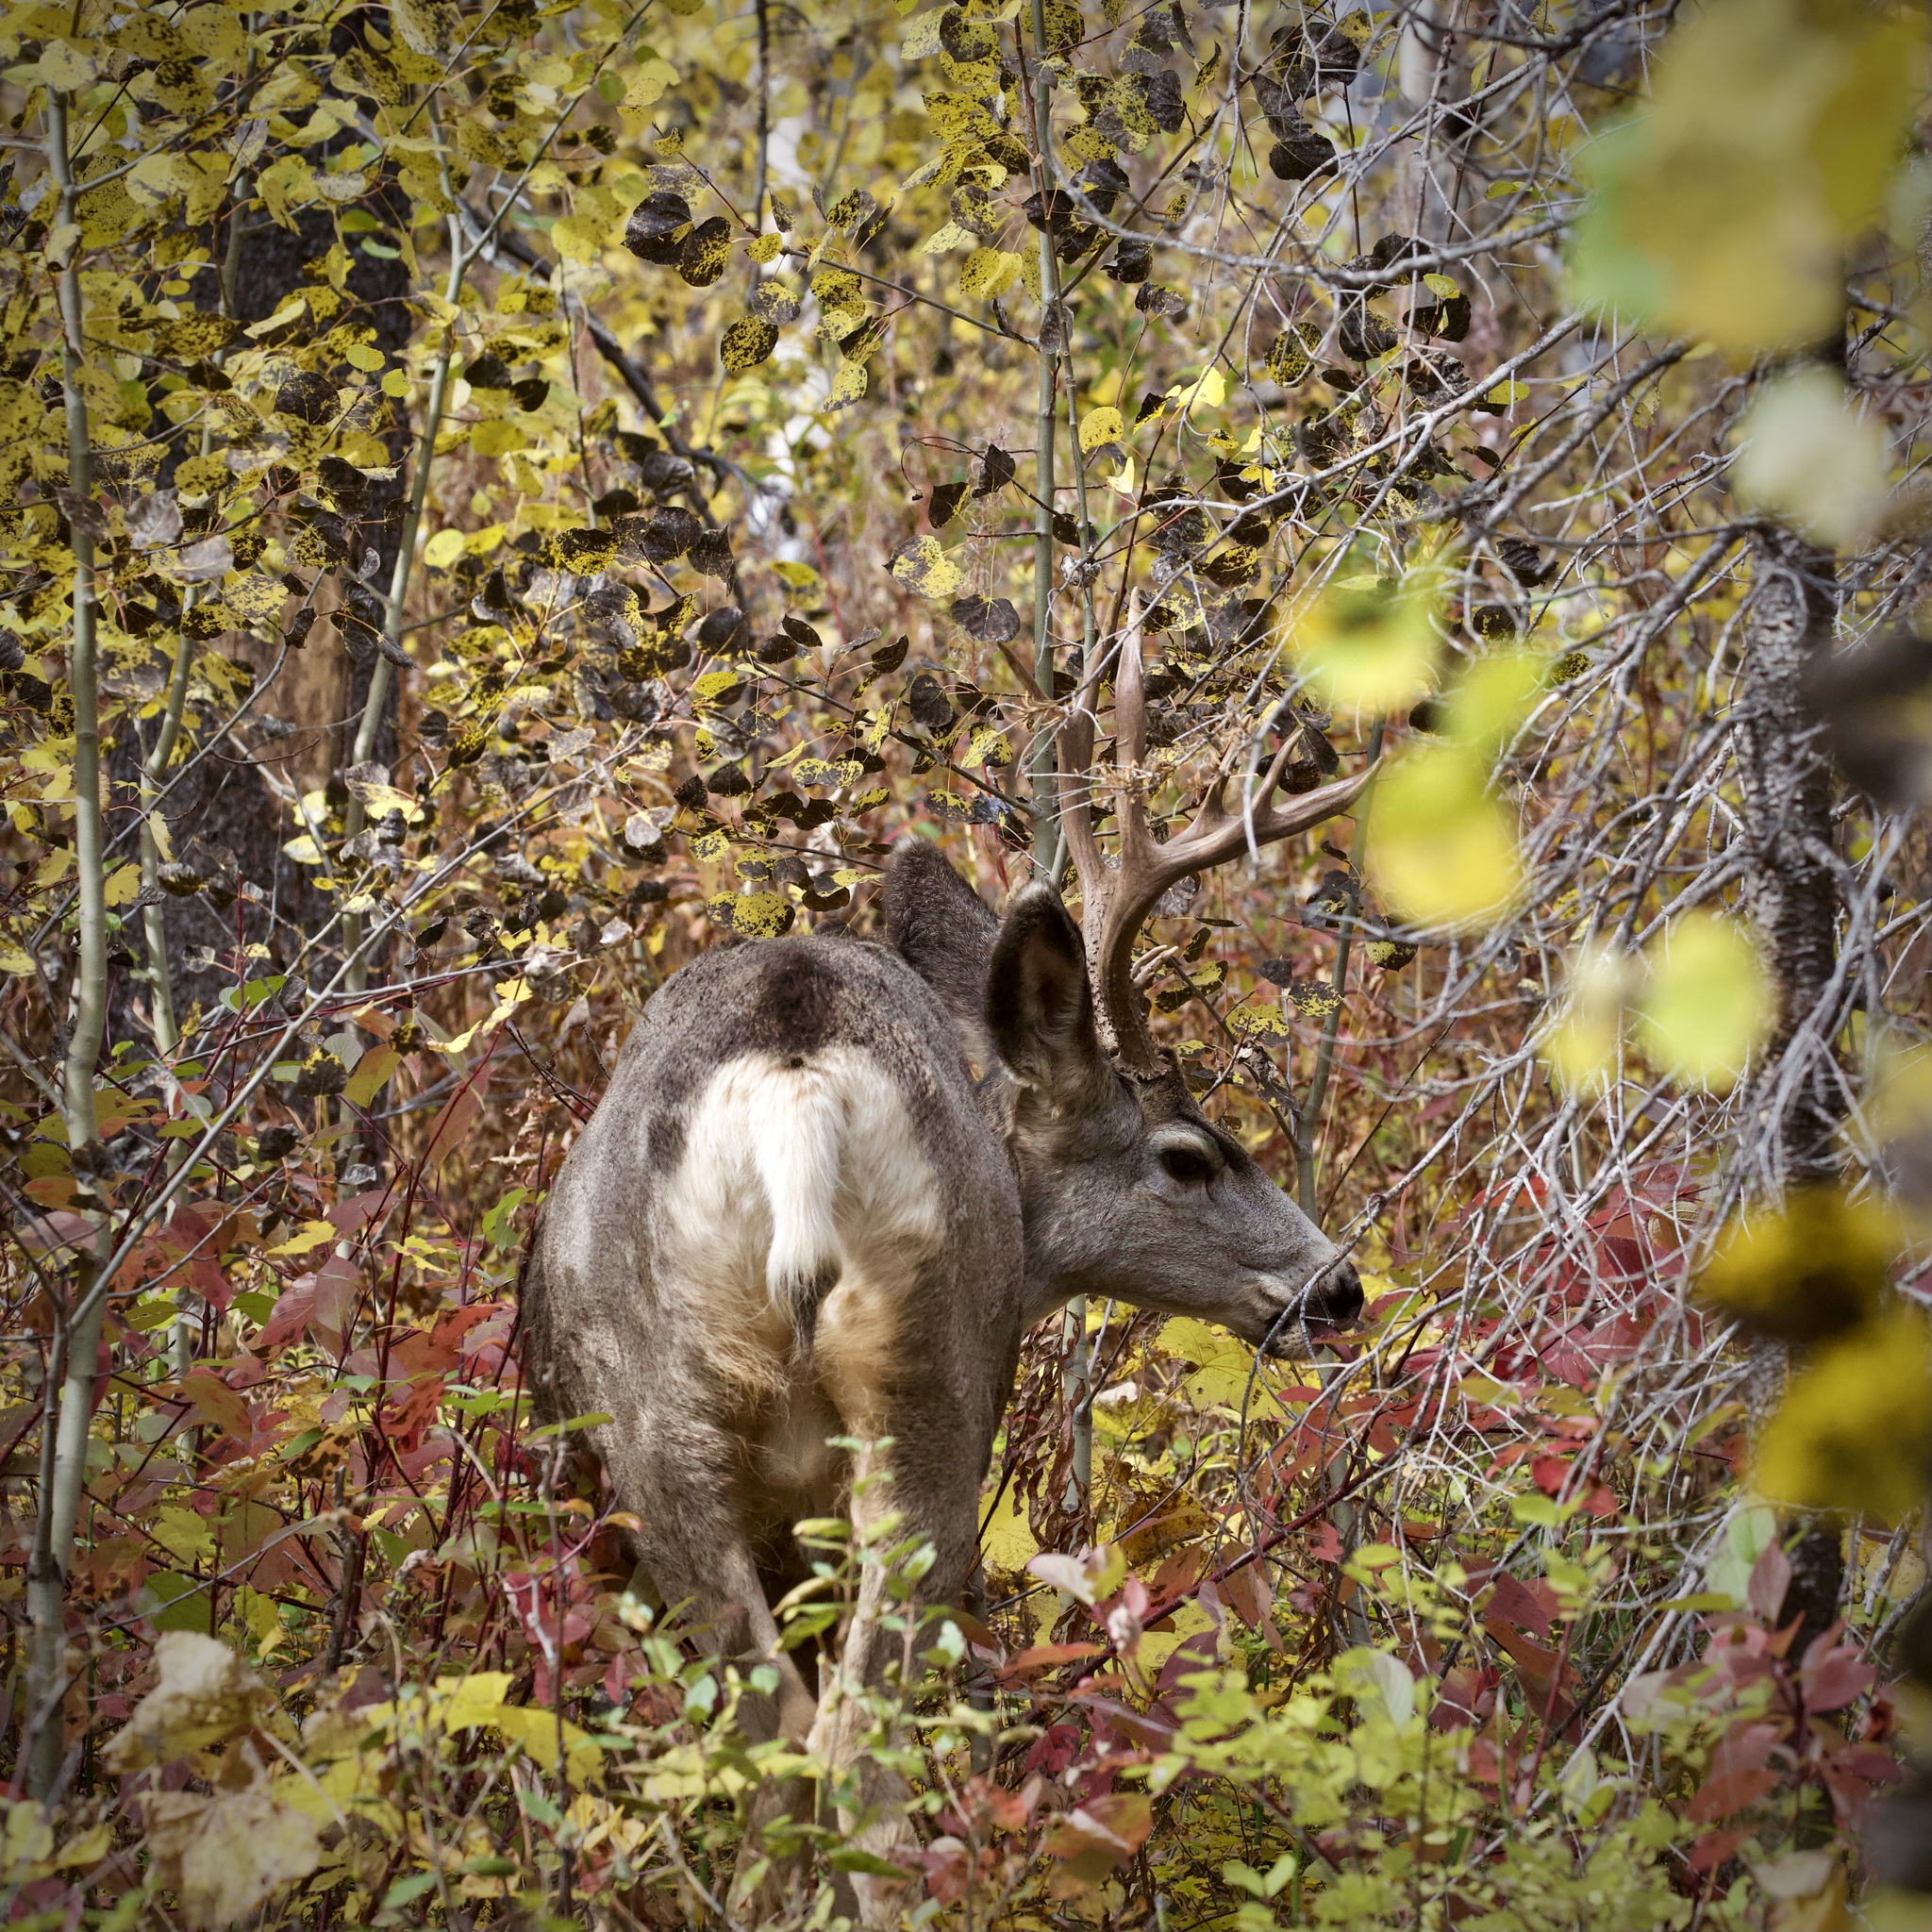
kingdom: Animalia
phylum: Chordata
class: Mammalia
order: Artiodactyla
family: Cervidae
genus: Odocoileus
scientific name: Odocoileus hemionus
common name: Mule deer
